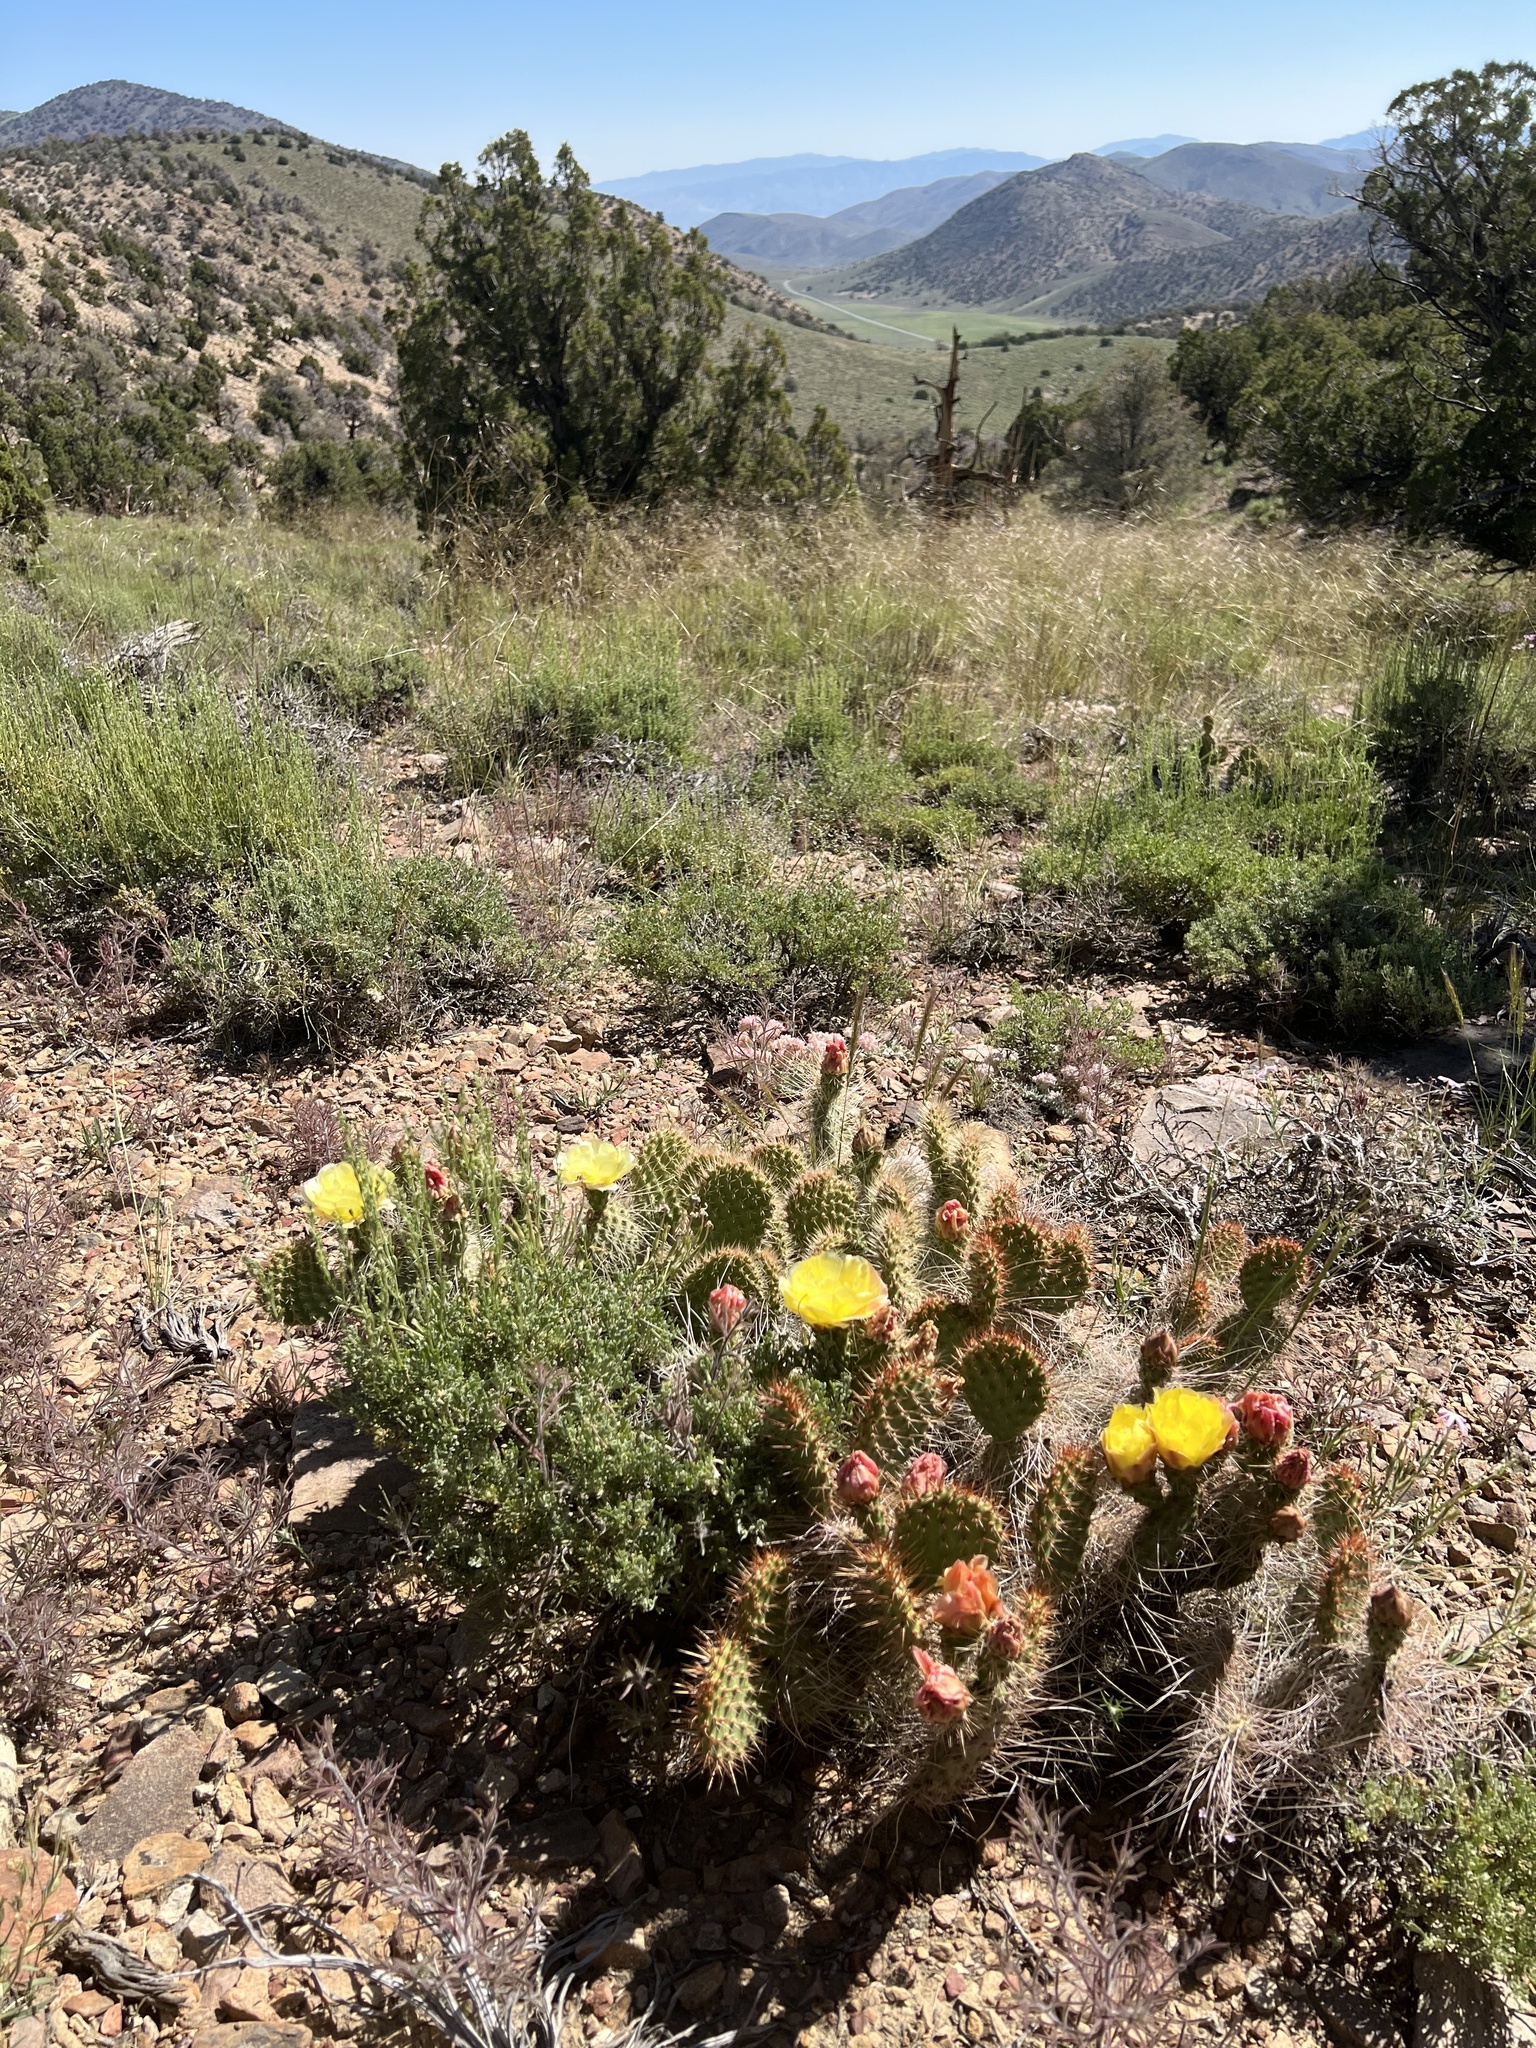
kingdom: Plantae
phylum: Tracheophyta
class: Magnoliopsida
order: Caryophyllales
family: Cactaceae
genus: Opuntia
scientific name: Opuntia polyacantha
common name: Plains prickly-pear
